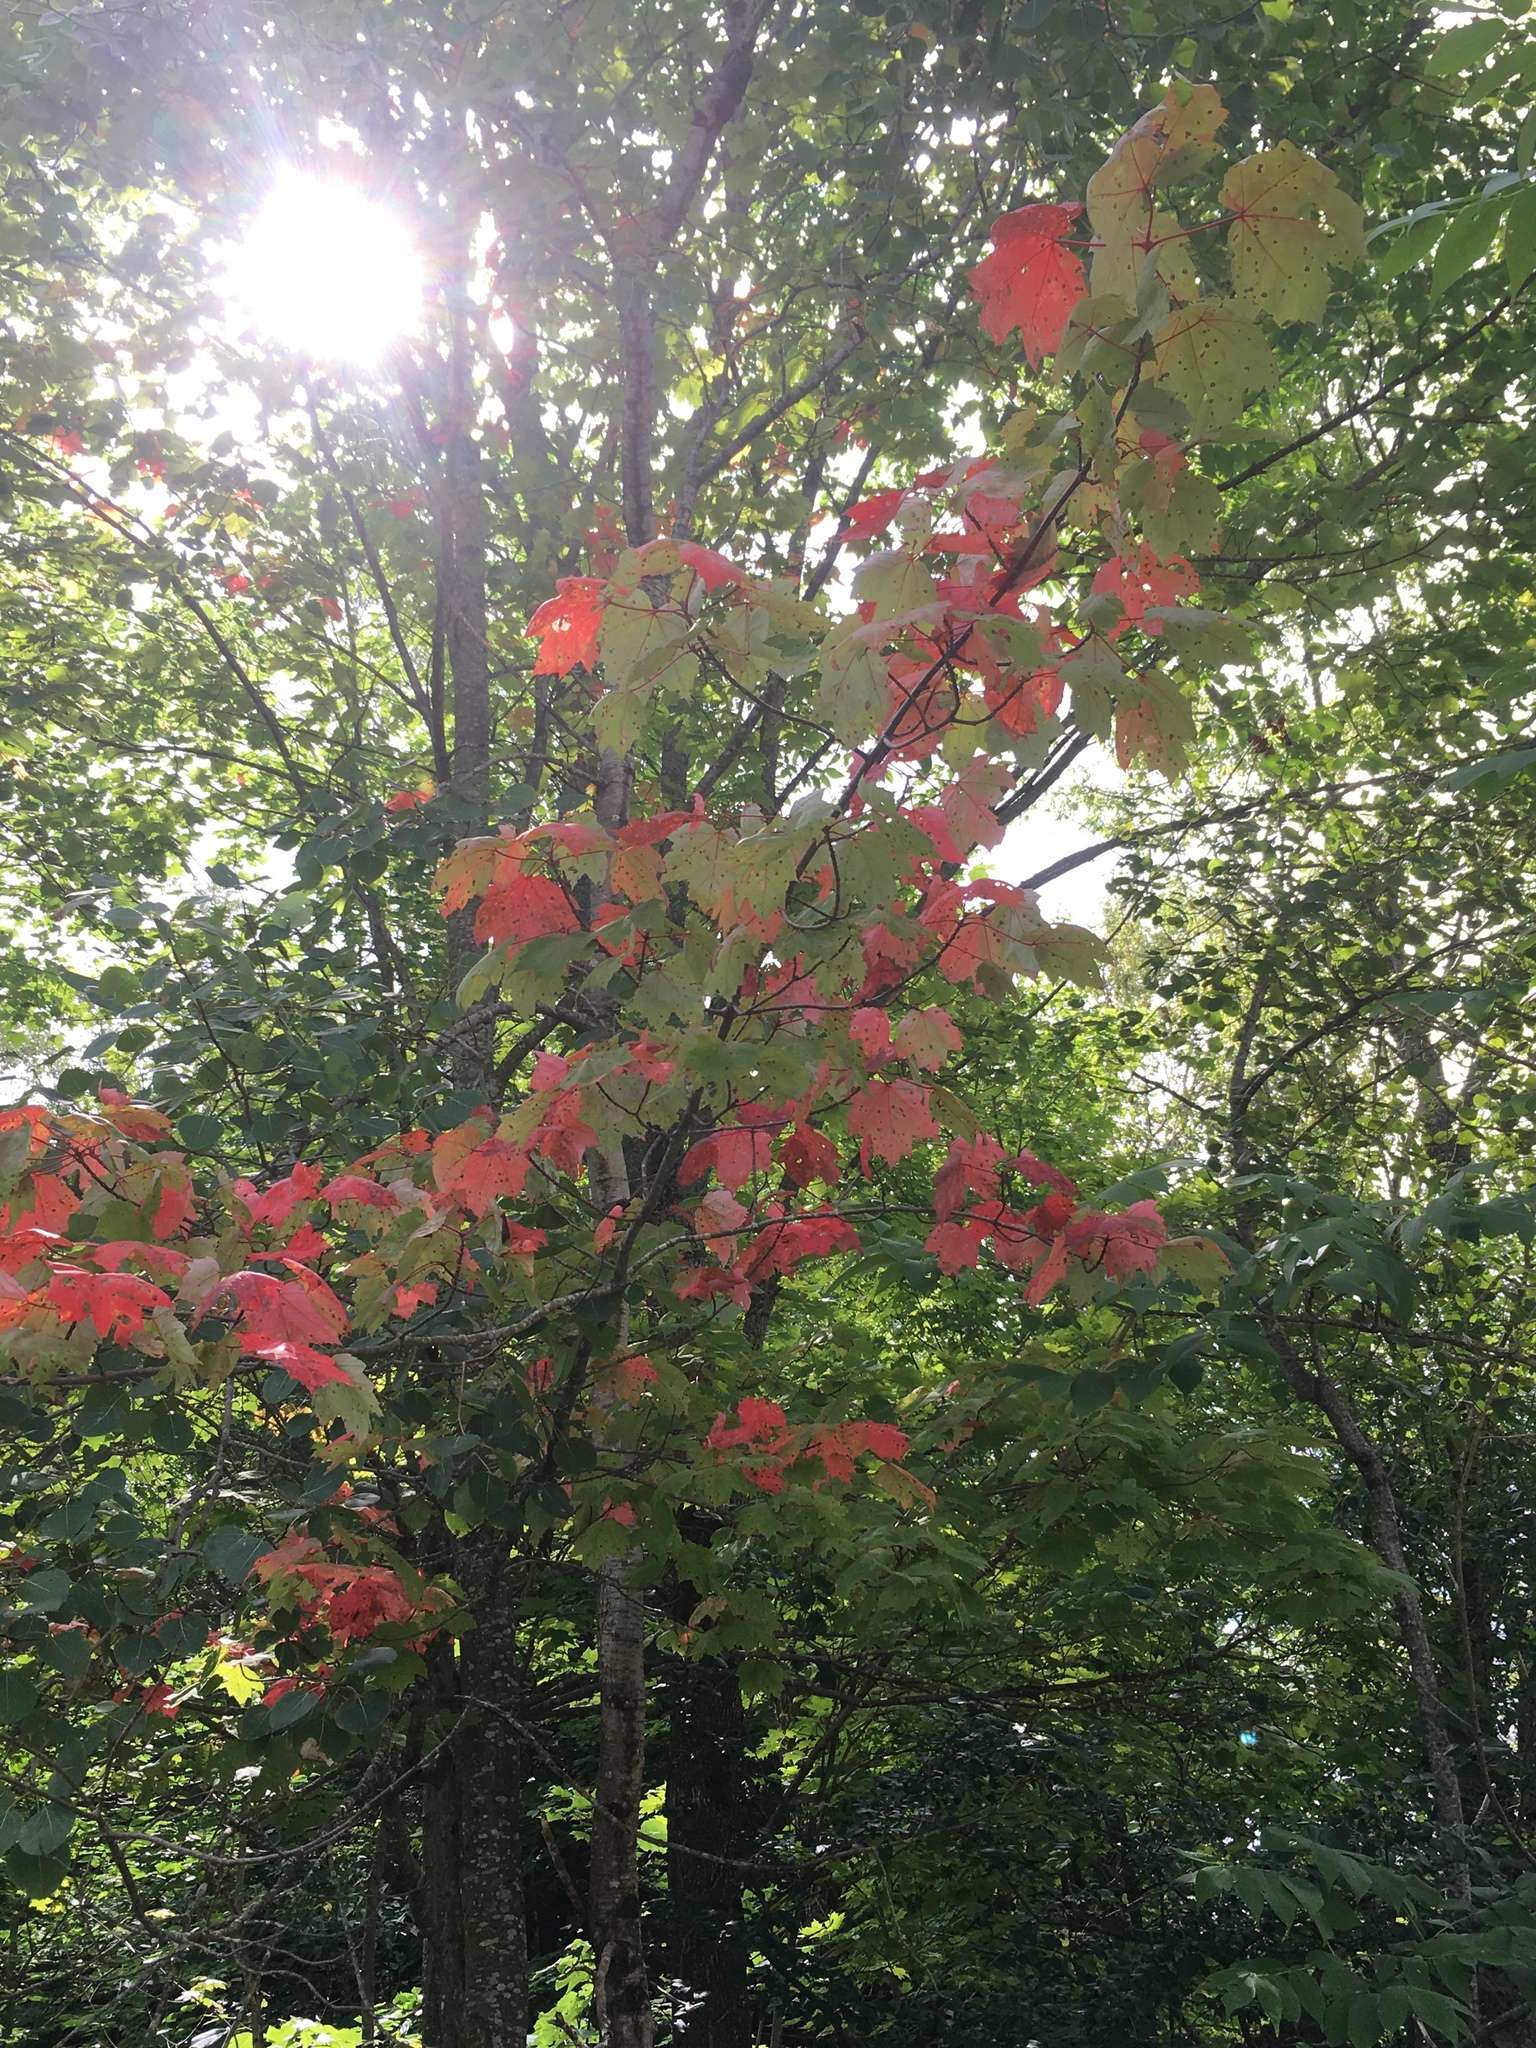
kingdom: Plantae
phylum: Tracheophyta
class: Magnoliopsida
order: Sapindales
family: Sapindaceae
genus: Acer
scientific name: Acer rubrum
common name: Red maple
